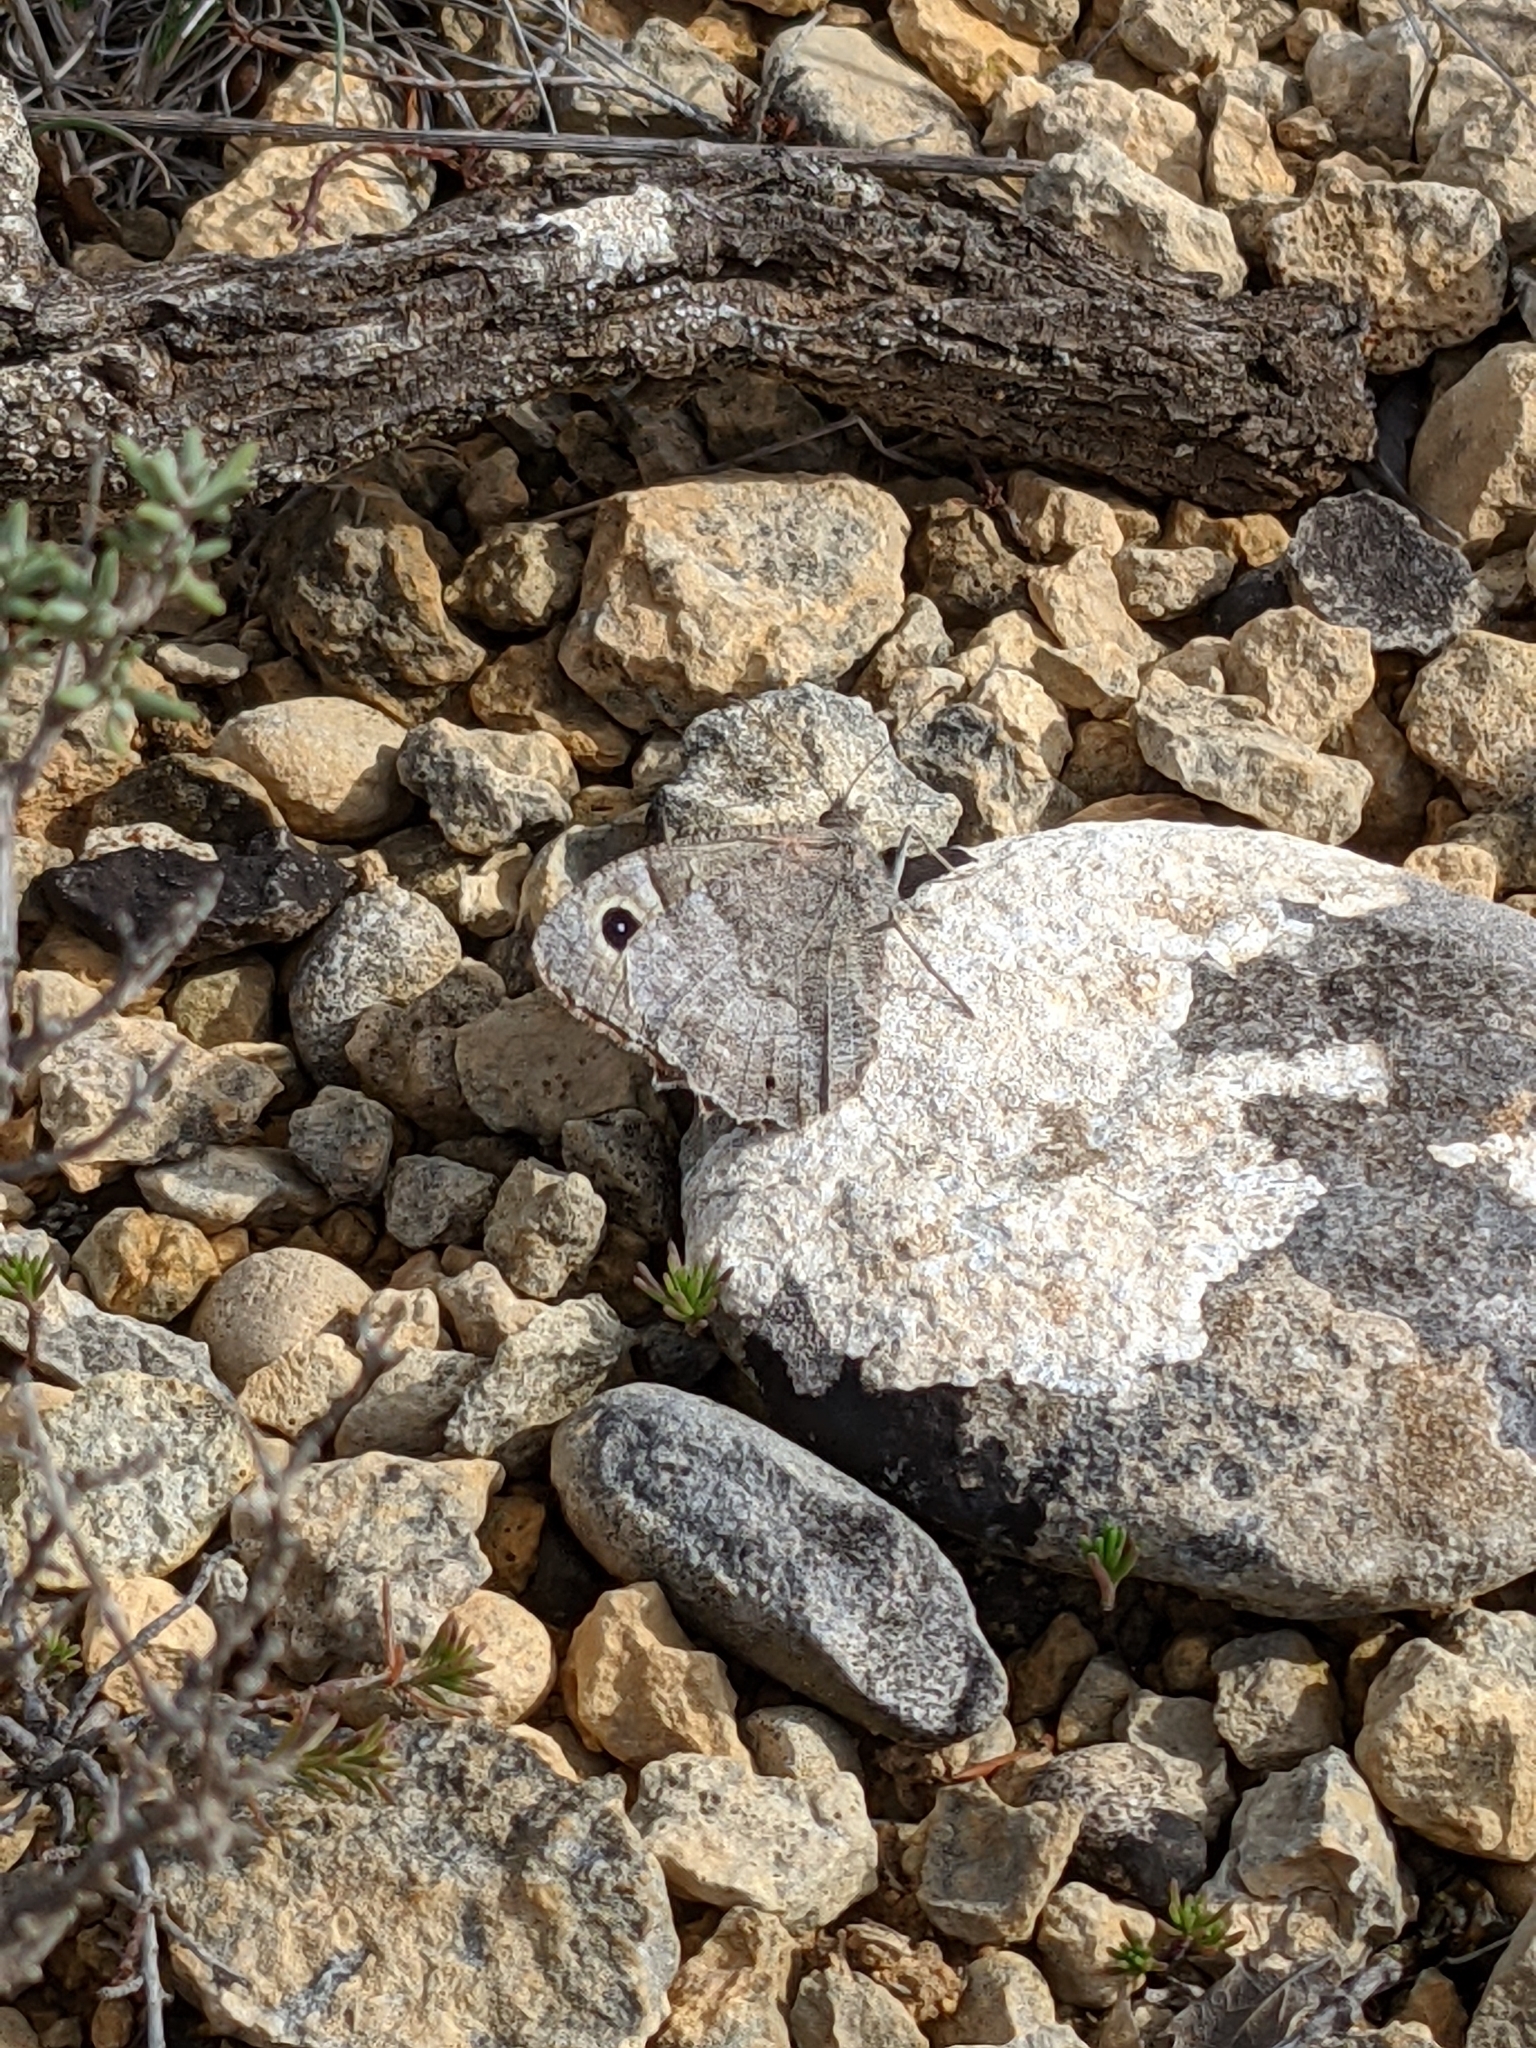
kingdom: Animalia
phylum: Arthropoda
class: Insecta
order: Lepidoptera
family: Nymphalidae
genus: Hipparchia
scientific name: Hipparchia statilinus
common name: Tree grayling
